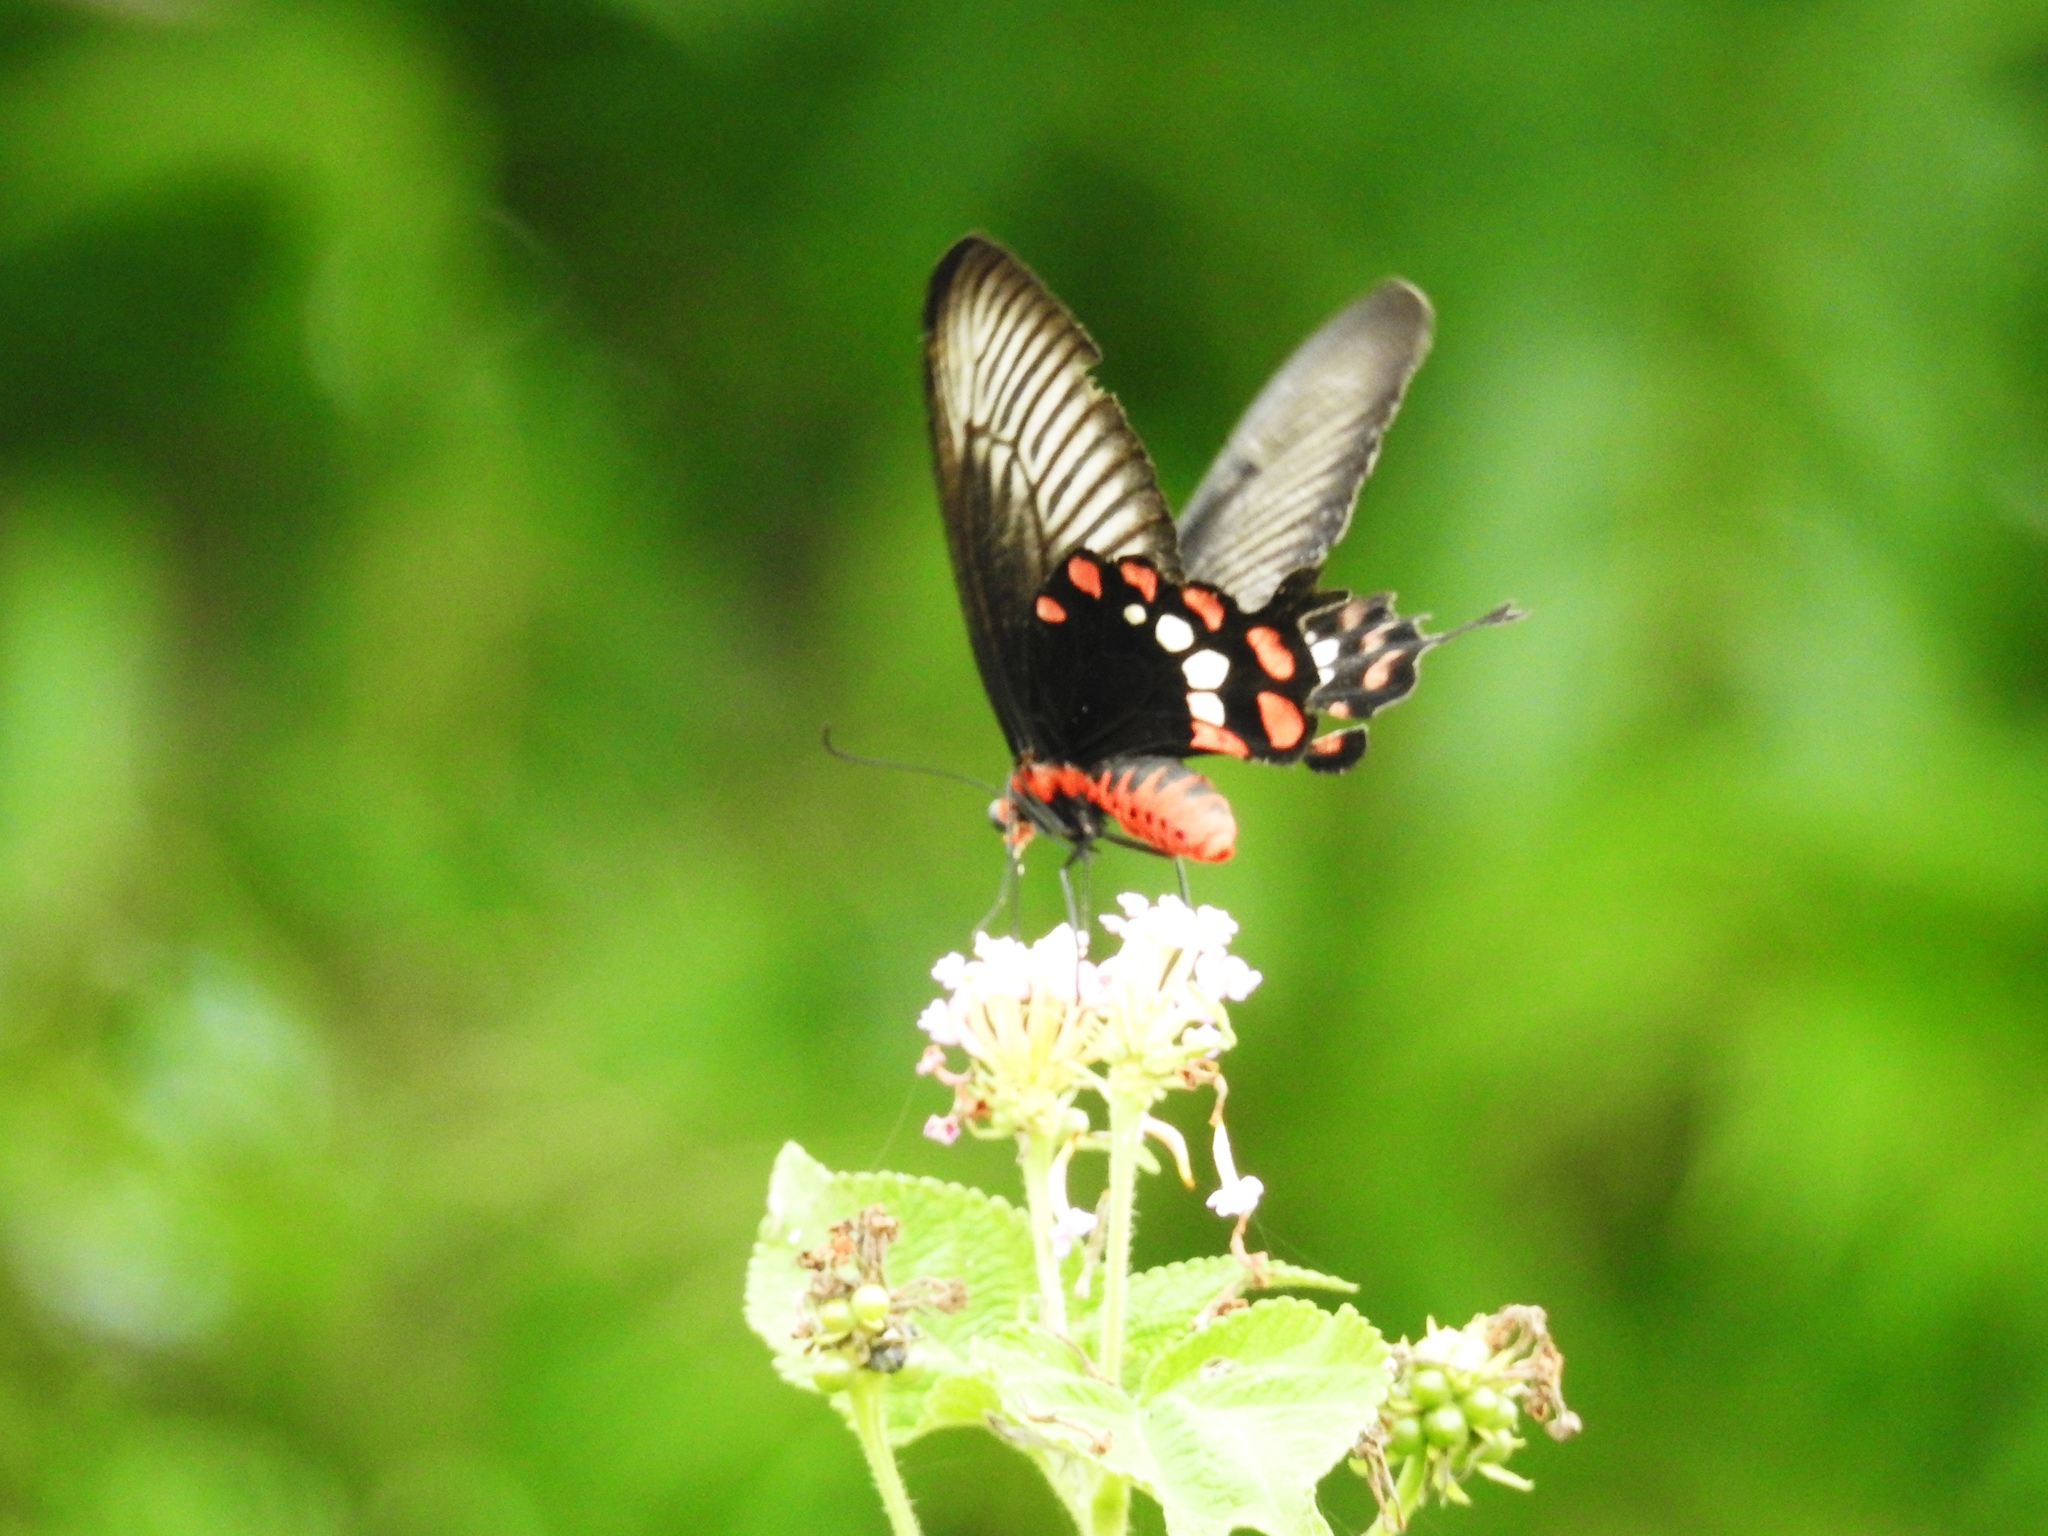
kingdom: Animalia
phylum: Arthropoda
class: Insecta
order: Lepidoptera
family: Papilionidae
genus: Pachliopta
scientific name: Pachliopta aristolochiae
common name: Common rose
